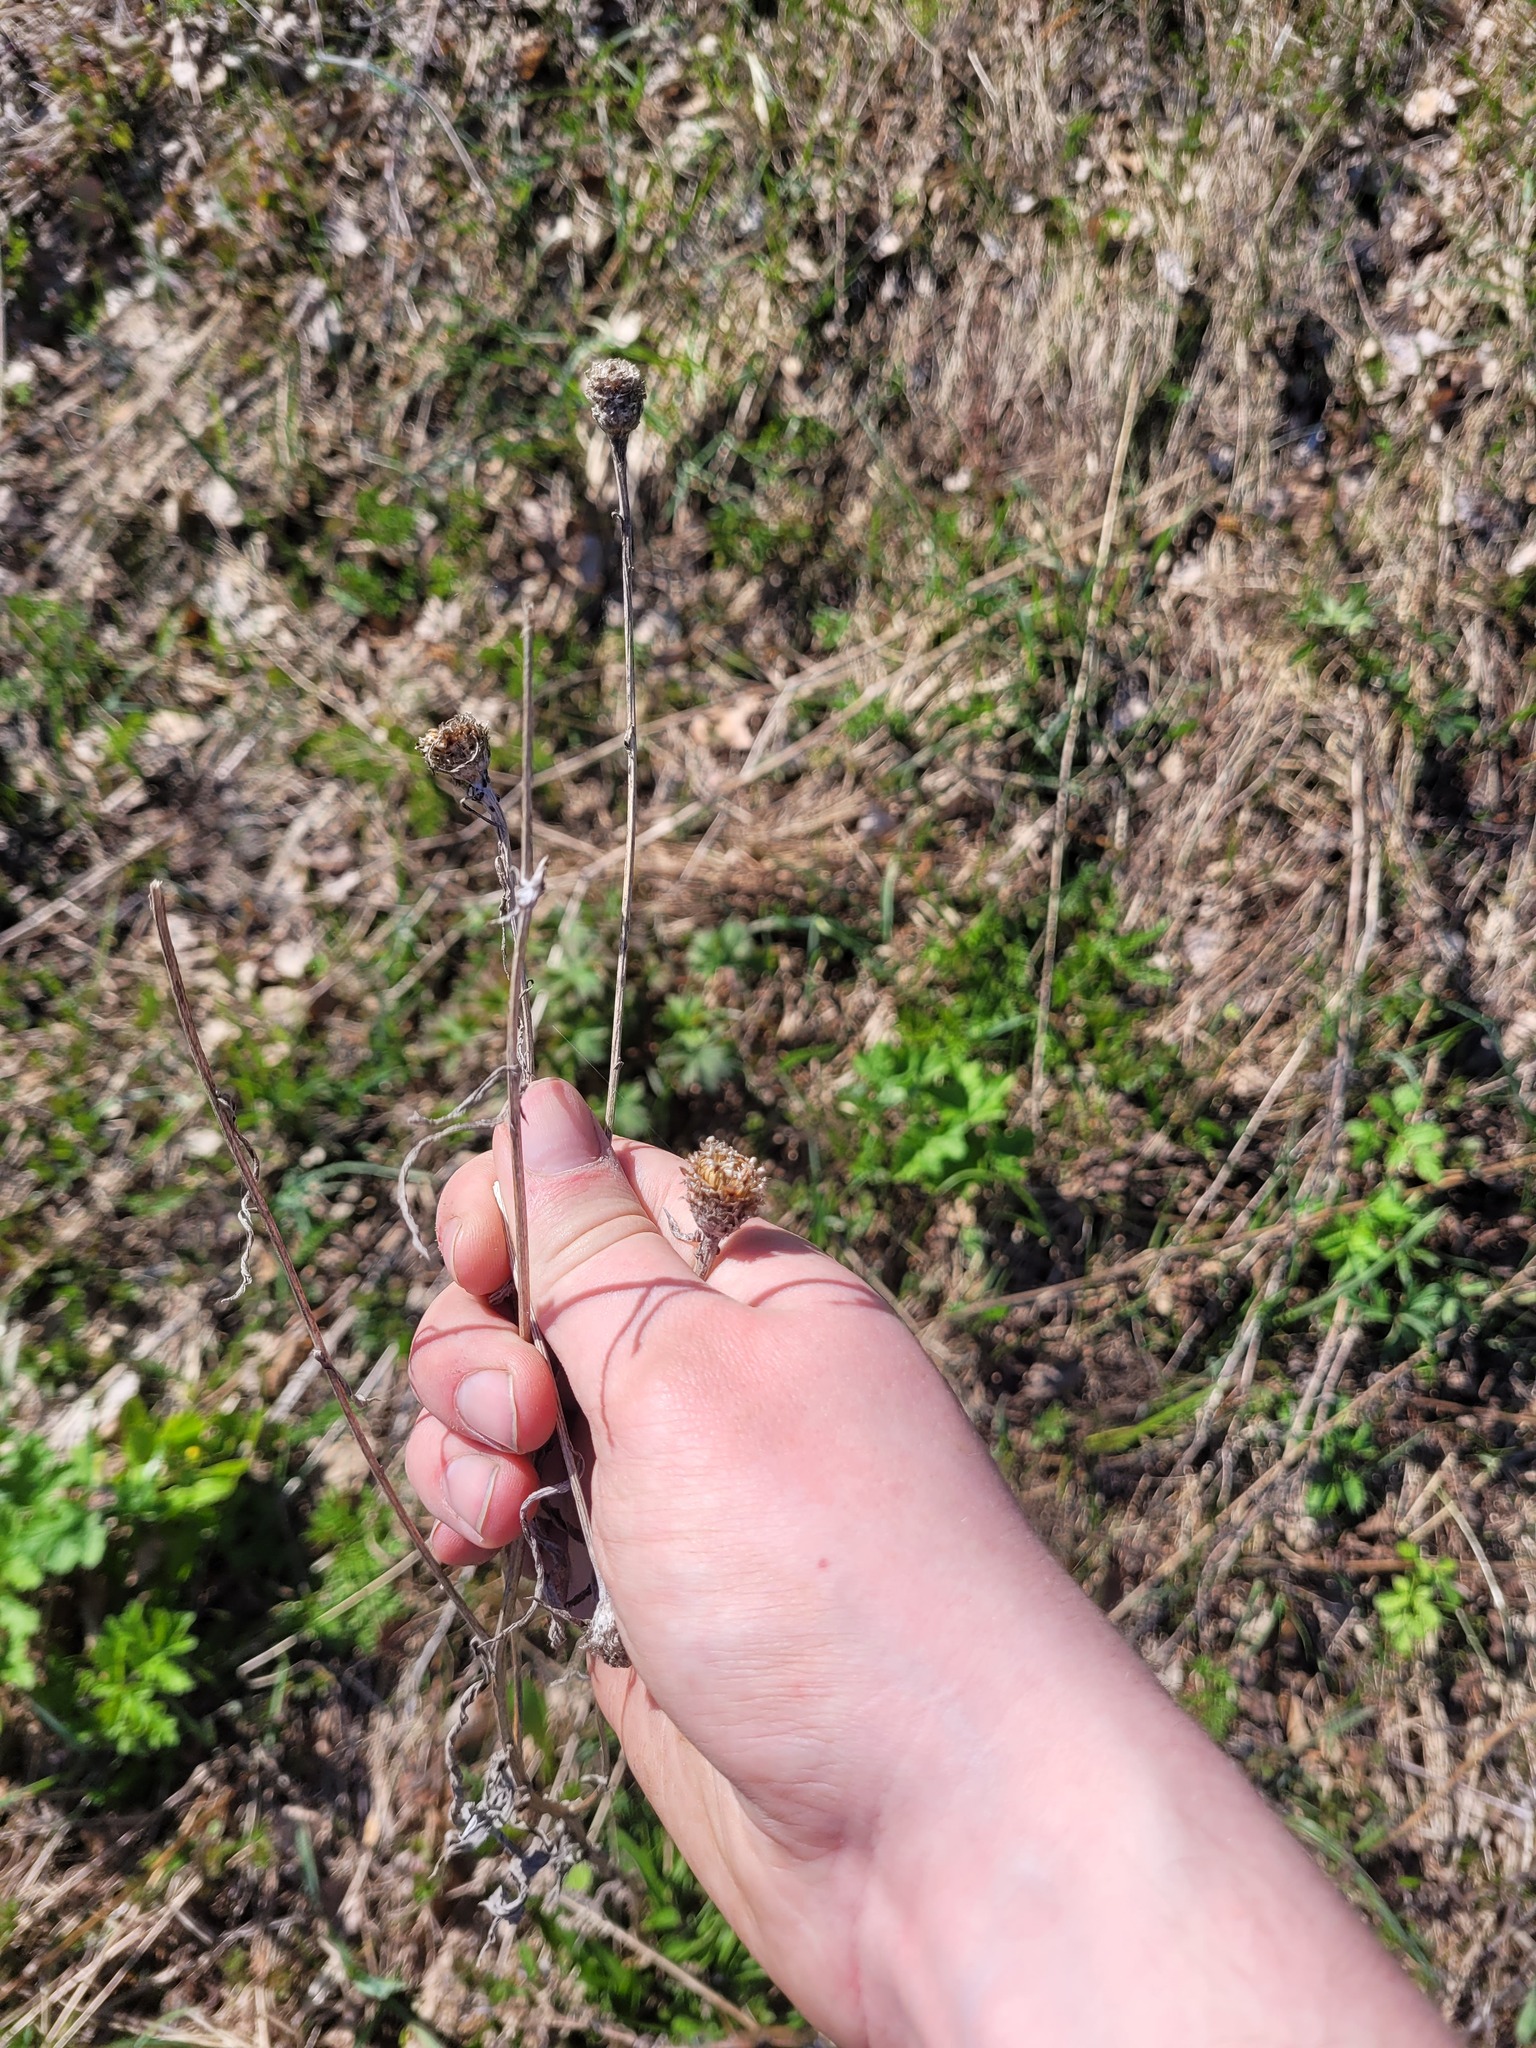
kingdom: Plantae
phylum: Tracheophyta
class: Magnoliopsida
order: Asterales
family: Asteraceae
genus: Centaurea
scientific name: Centaurea jacea
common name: Brown knapweed
